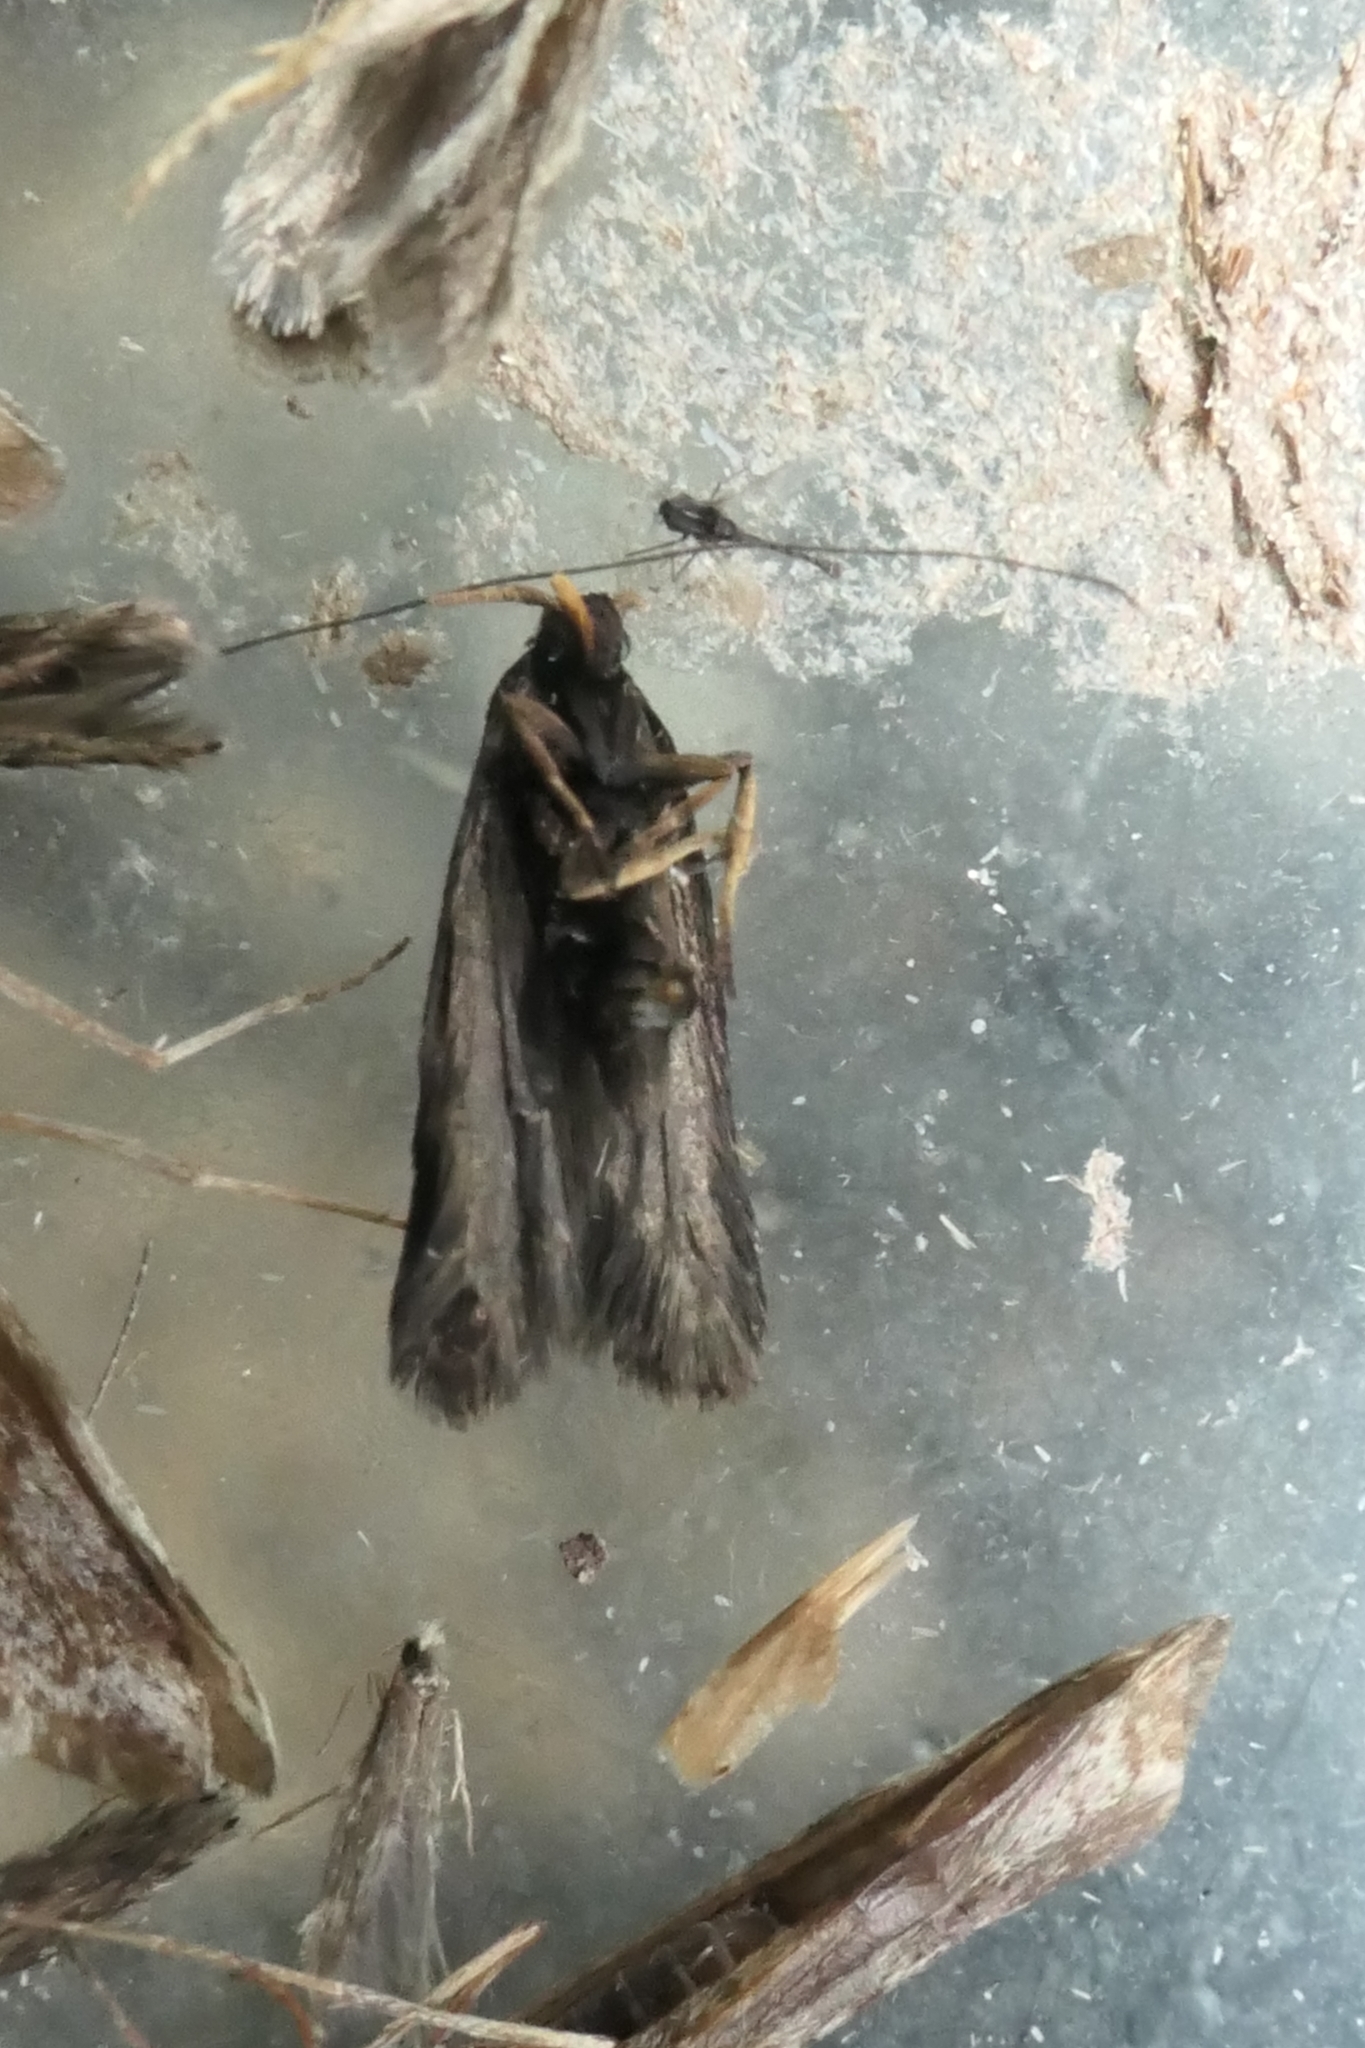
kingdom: Animalia
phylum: Arthropoda
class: Insecta
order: Lepidoptera
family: Lecithoceridae
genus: Lecithocera
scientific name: Lecithocera micromela
